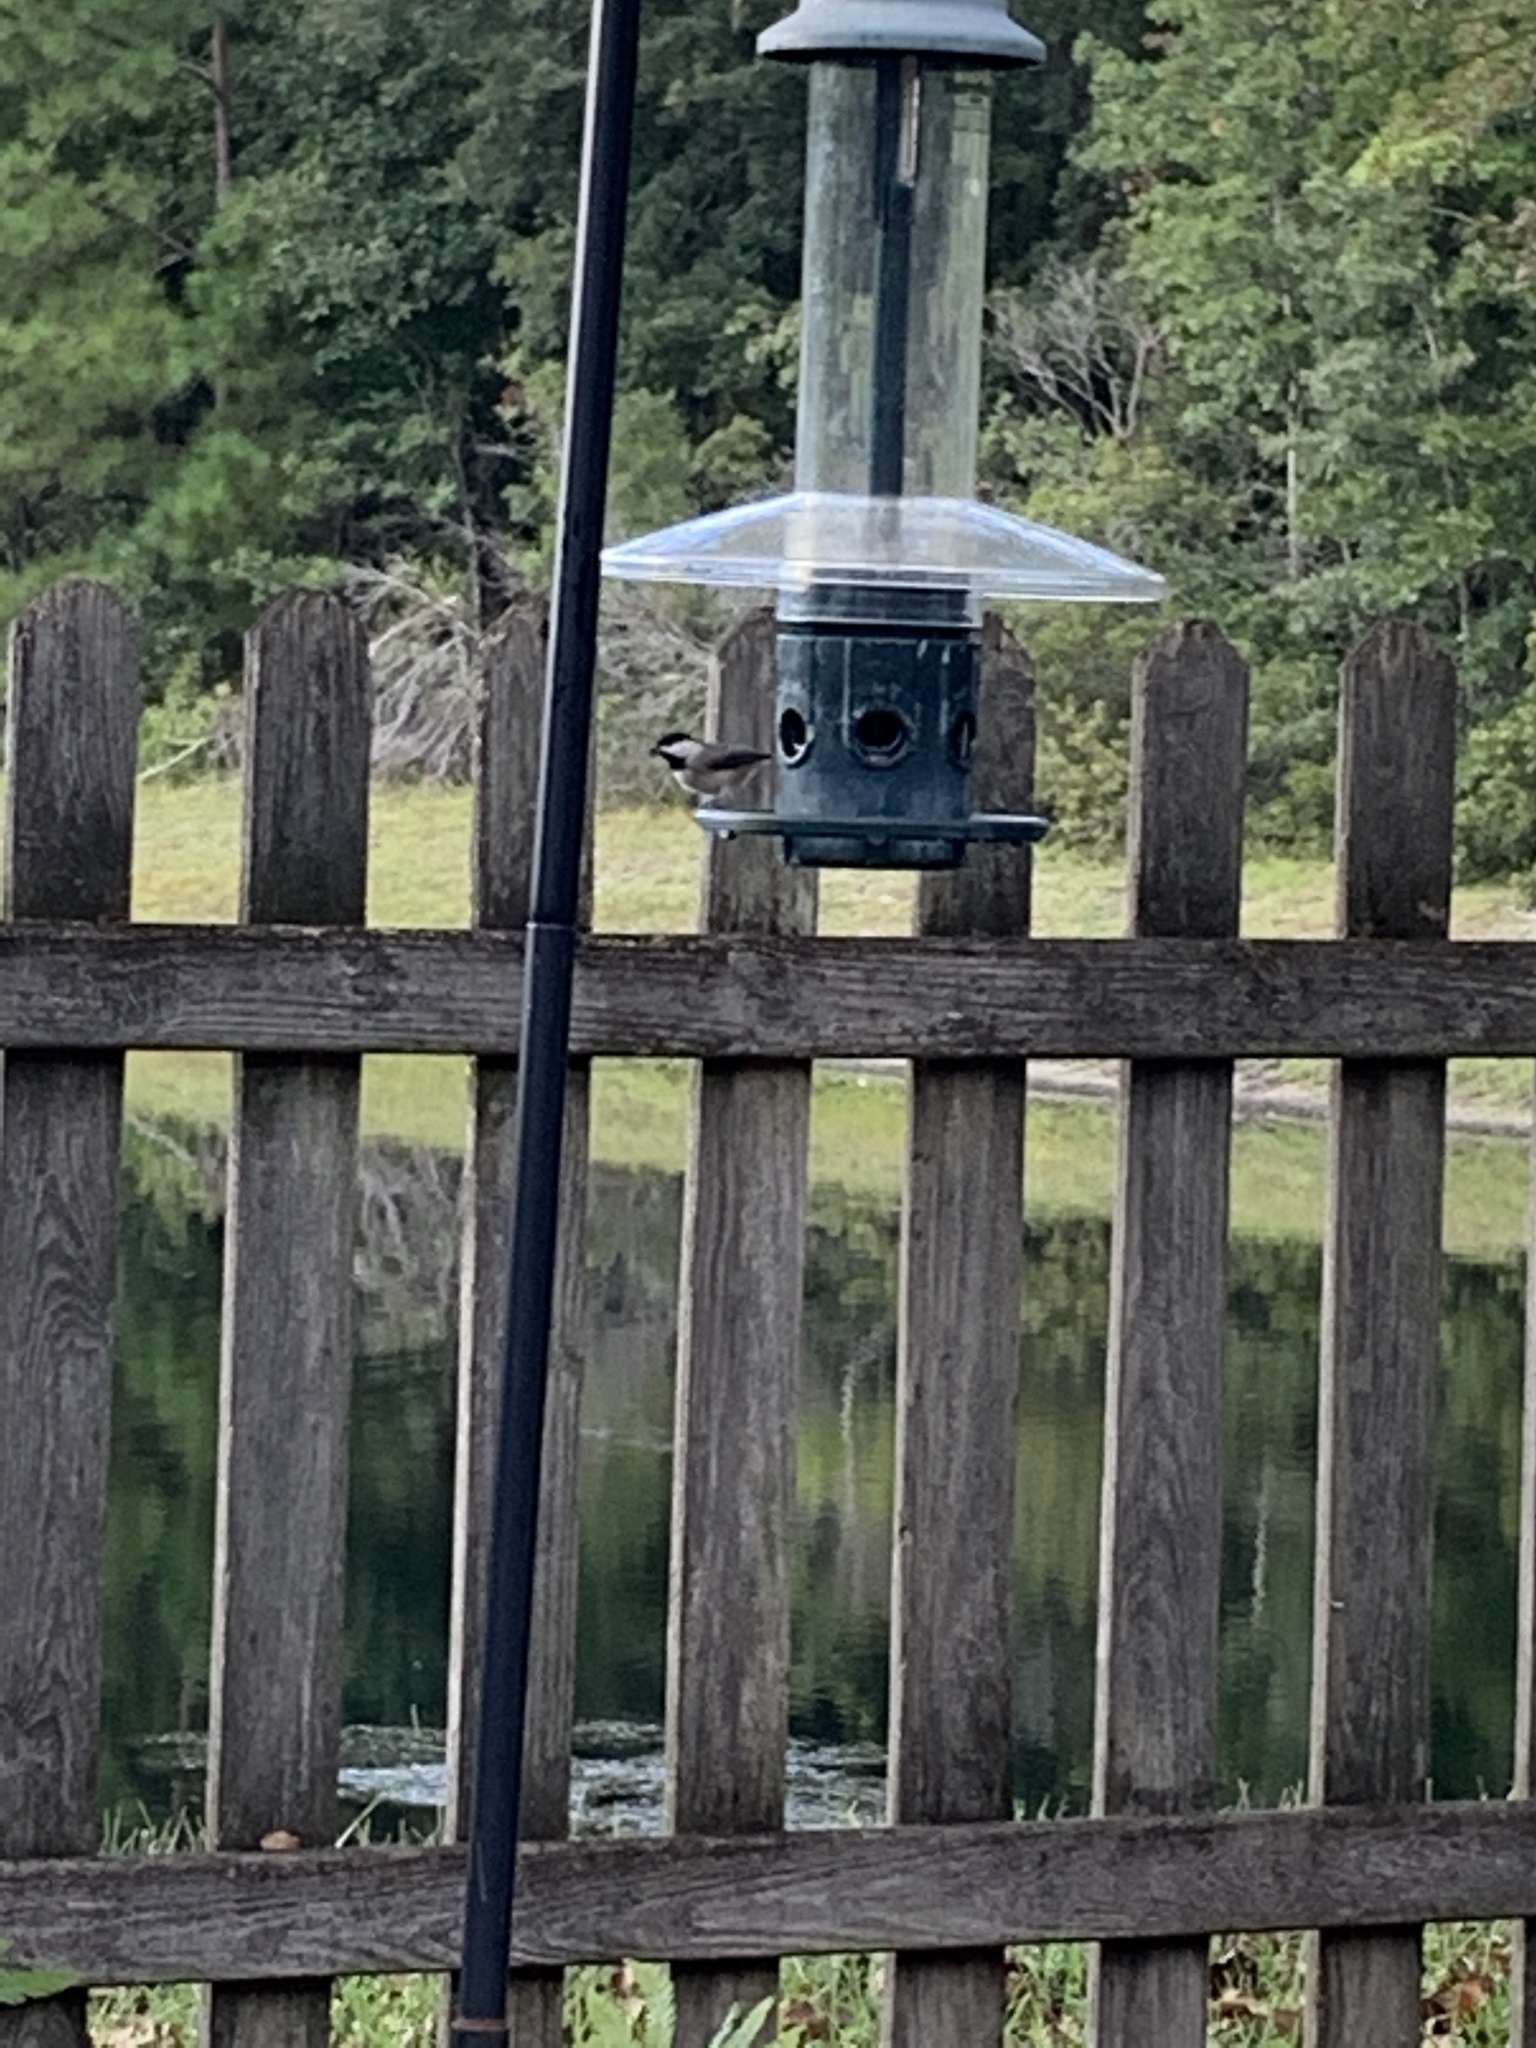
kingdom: Animalia
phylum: Chordata
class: Aves
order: Passeriformes
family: Paridae
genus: Poecile
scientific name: Poecile carolinensis
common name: Carolina chickadee
